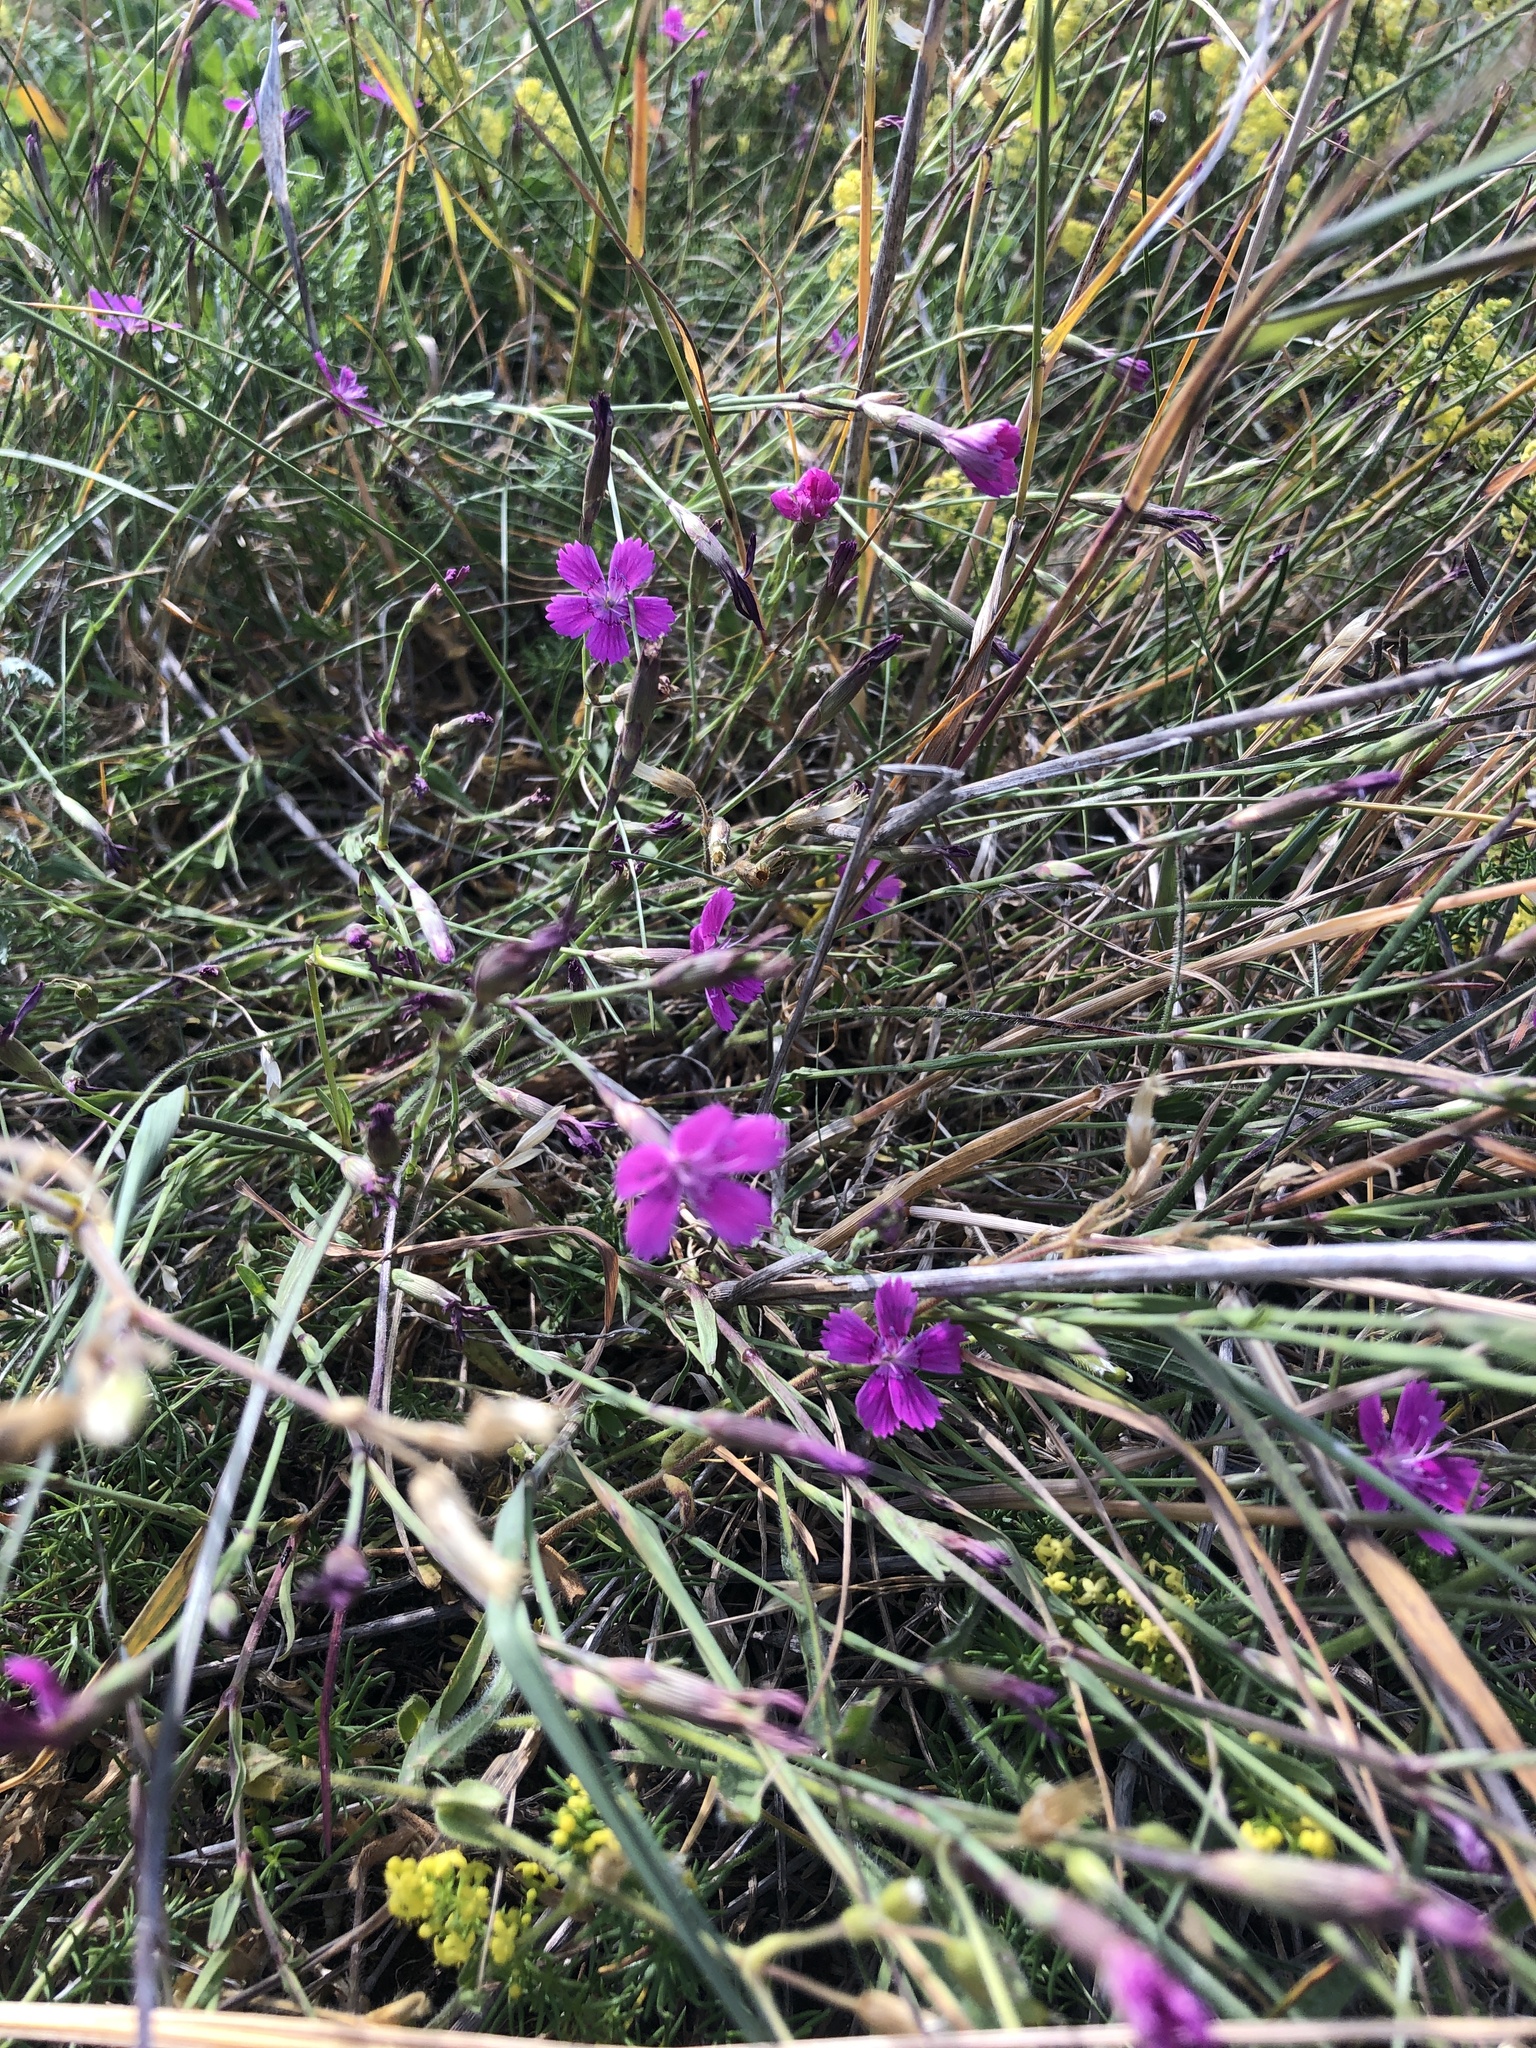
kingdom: Plantae
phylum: Tracheophyta
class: Magnoliopsida
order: Caryophyllales
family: Caryophyllaceae
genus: Dianthus
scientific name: Dianthus deltoides
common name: Maiden pink
